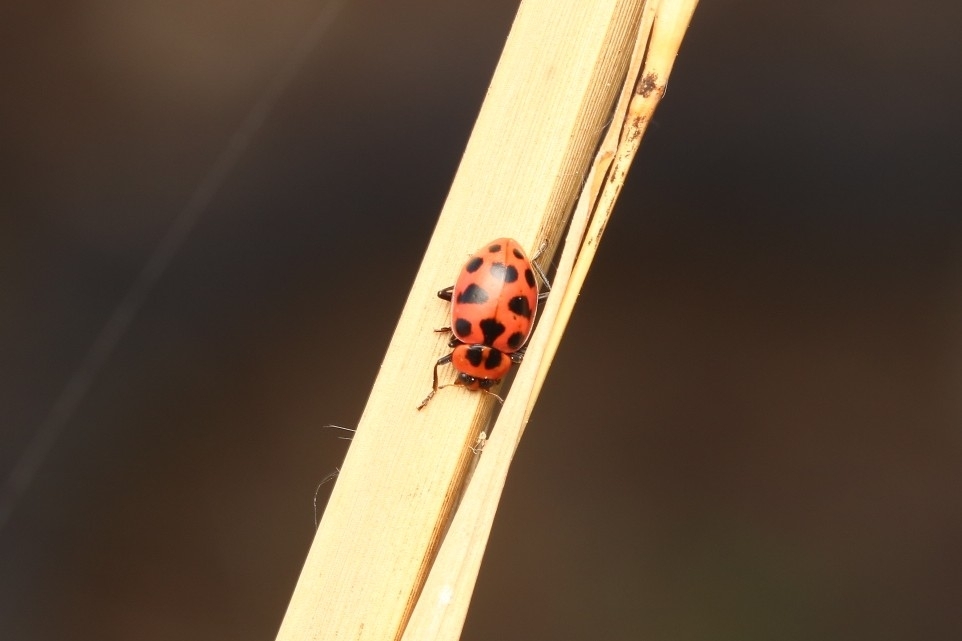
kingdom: Animalia
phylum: Arthropoda
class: Insecta
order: Coleoptera
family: Coccinellidae
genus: Coleomegilla
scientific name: Coleomegilla maculata
